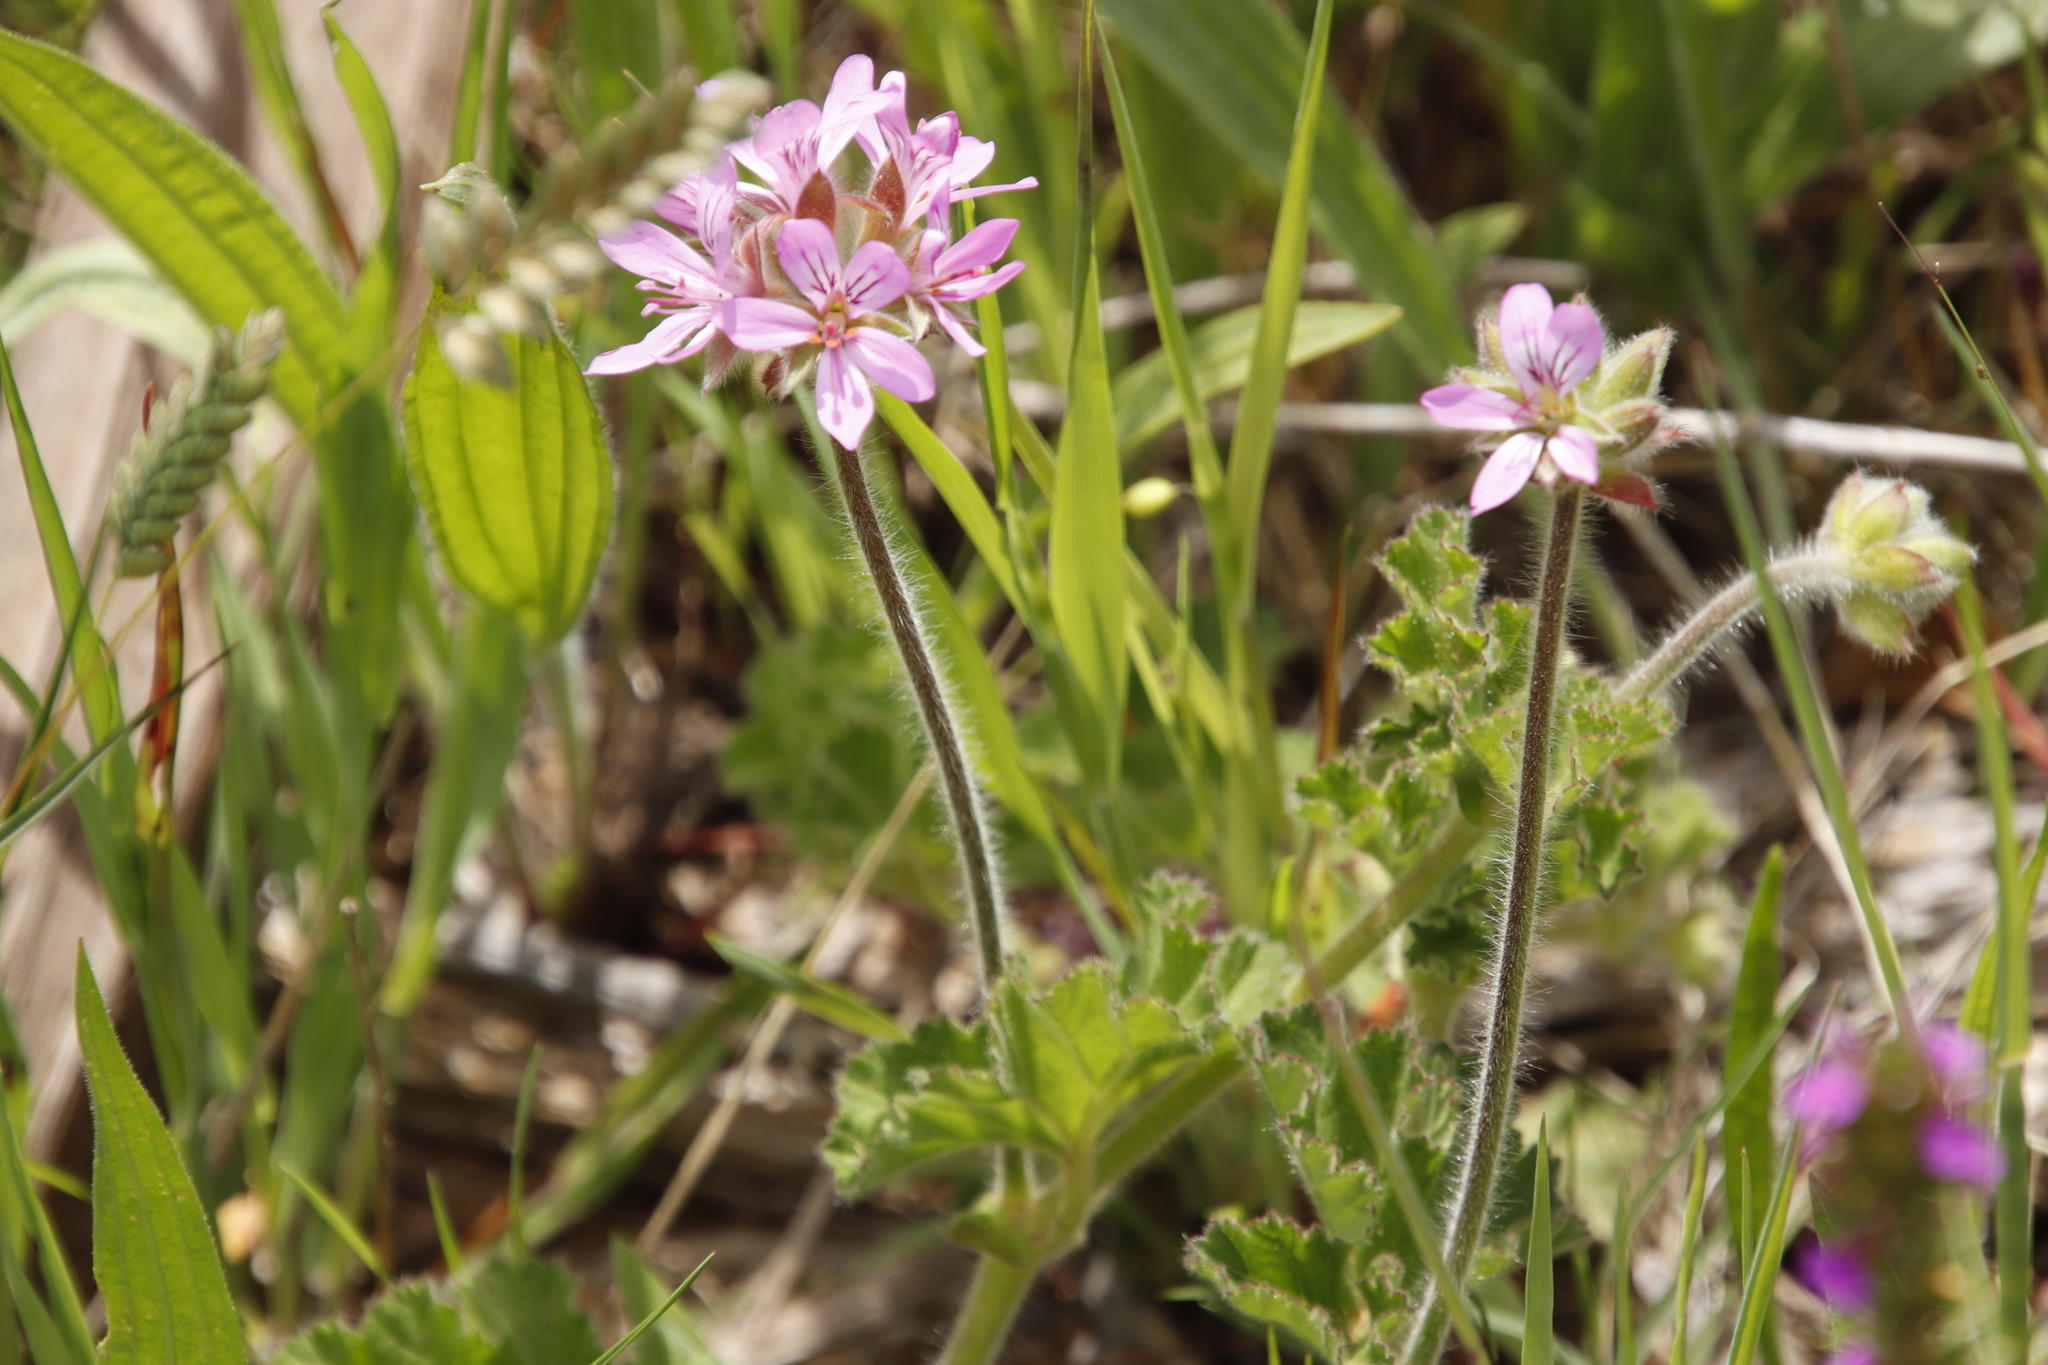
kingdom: Plantae
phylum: Tracheophyta
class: Magnoliopsida
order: Geraniales
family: Geraniaceae
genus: Pelargonium
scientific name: Pelargonium capitatum
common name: Rose scented geranium
